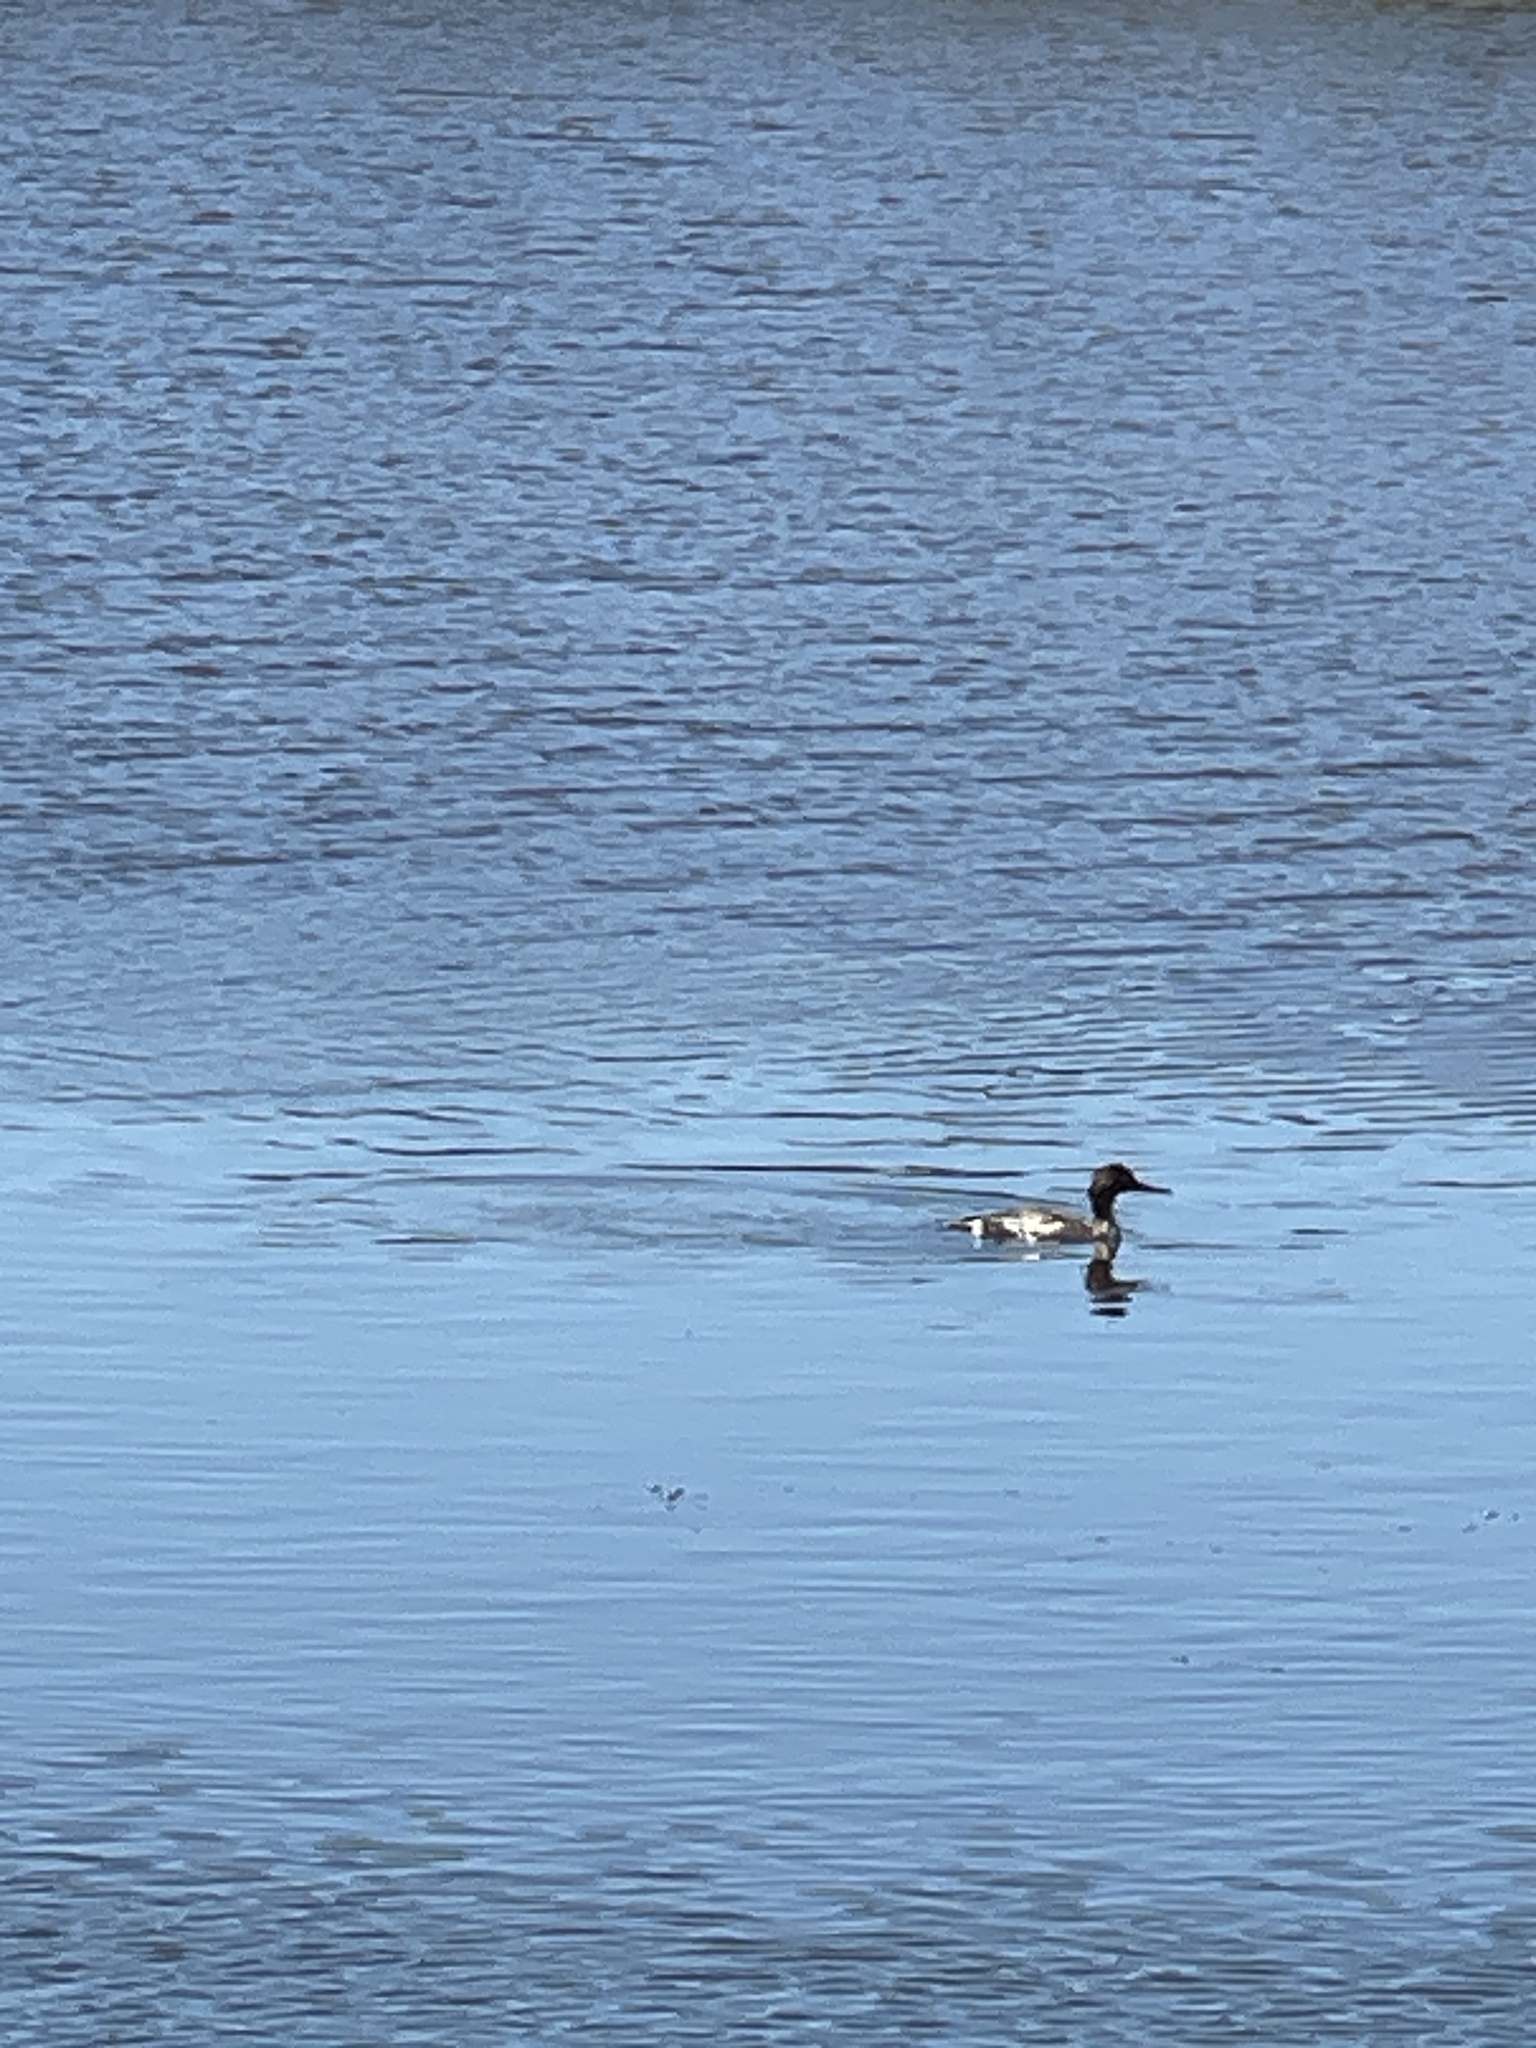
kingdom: Animalia
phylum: Chordata
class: Aves
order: Anseriformes
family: Anatidae
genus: Mergus
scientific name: Mergus serrator
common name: Red-breasted merganser
